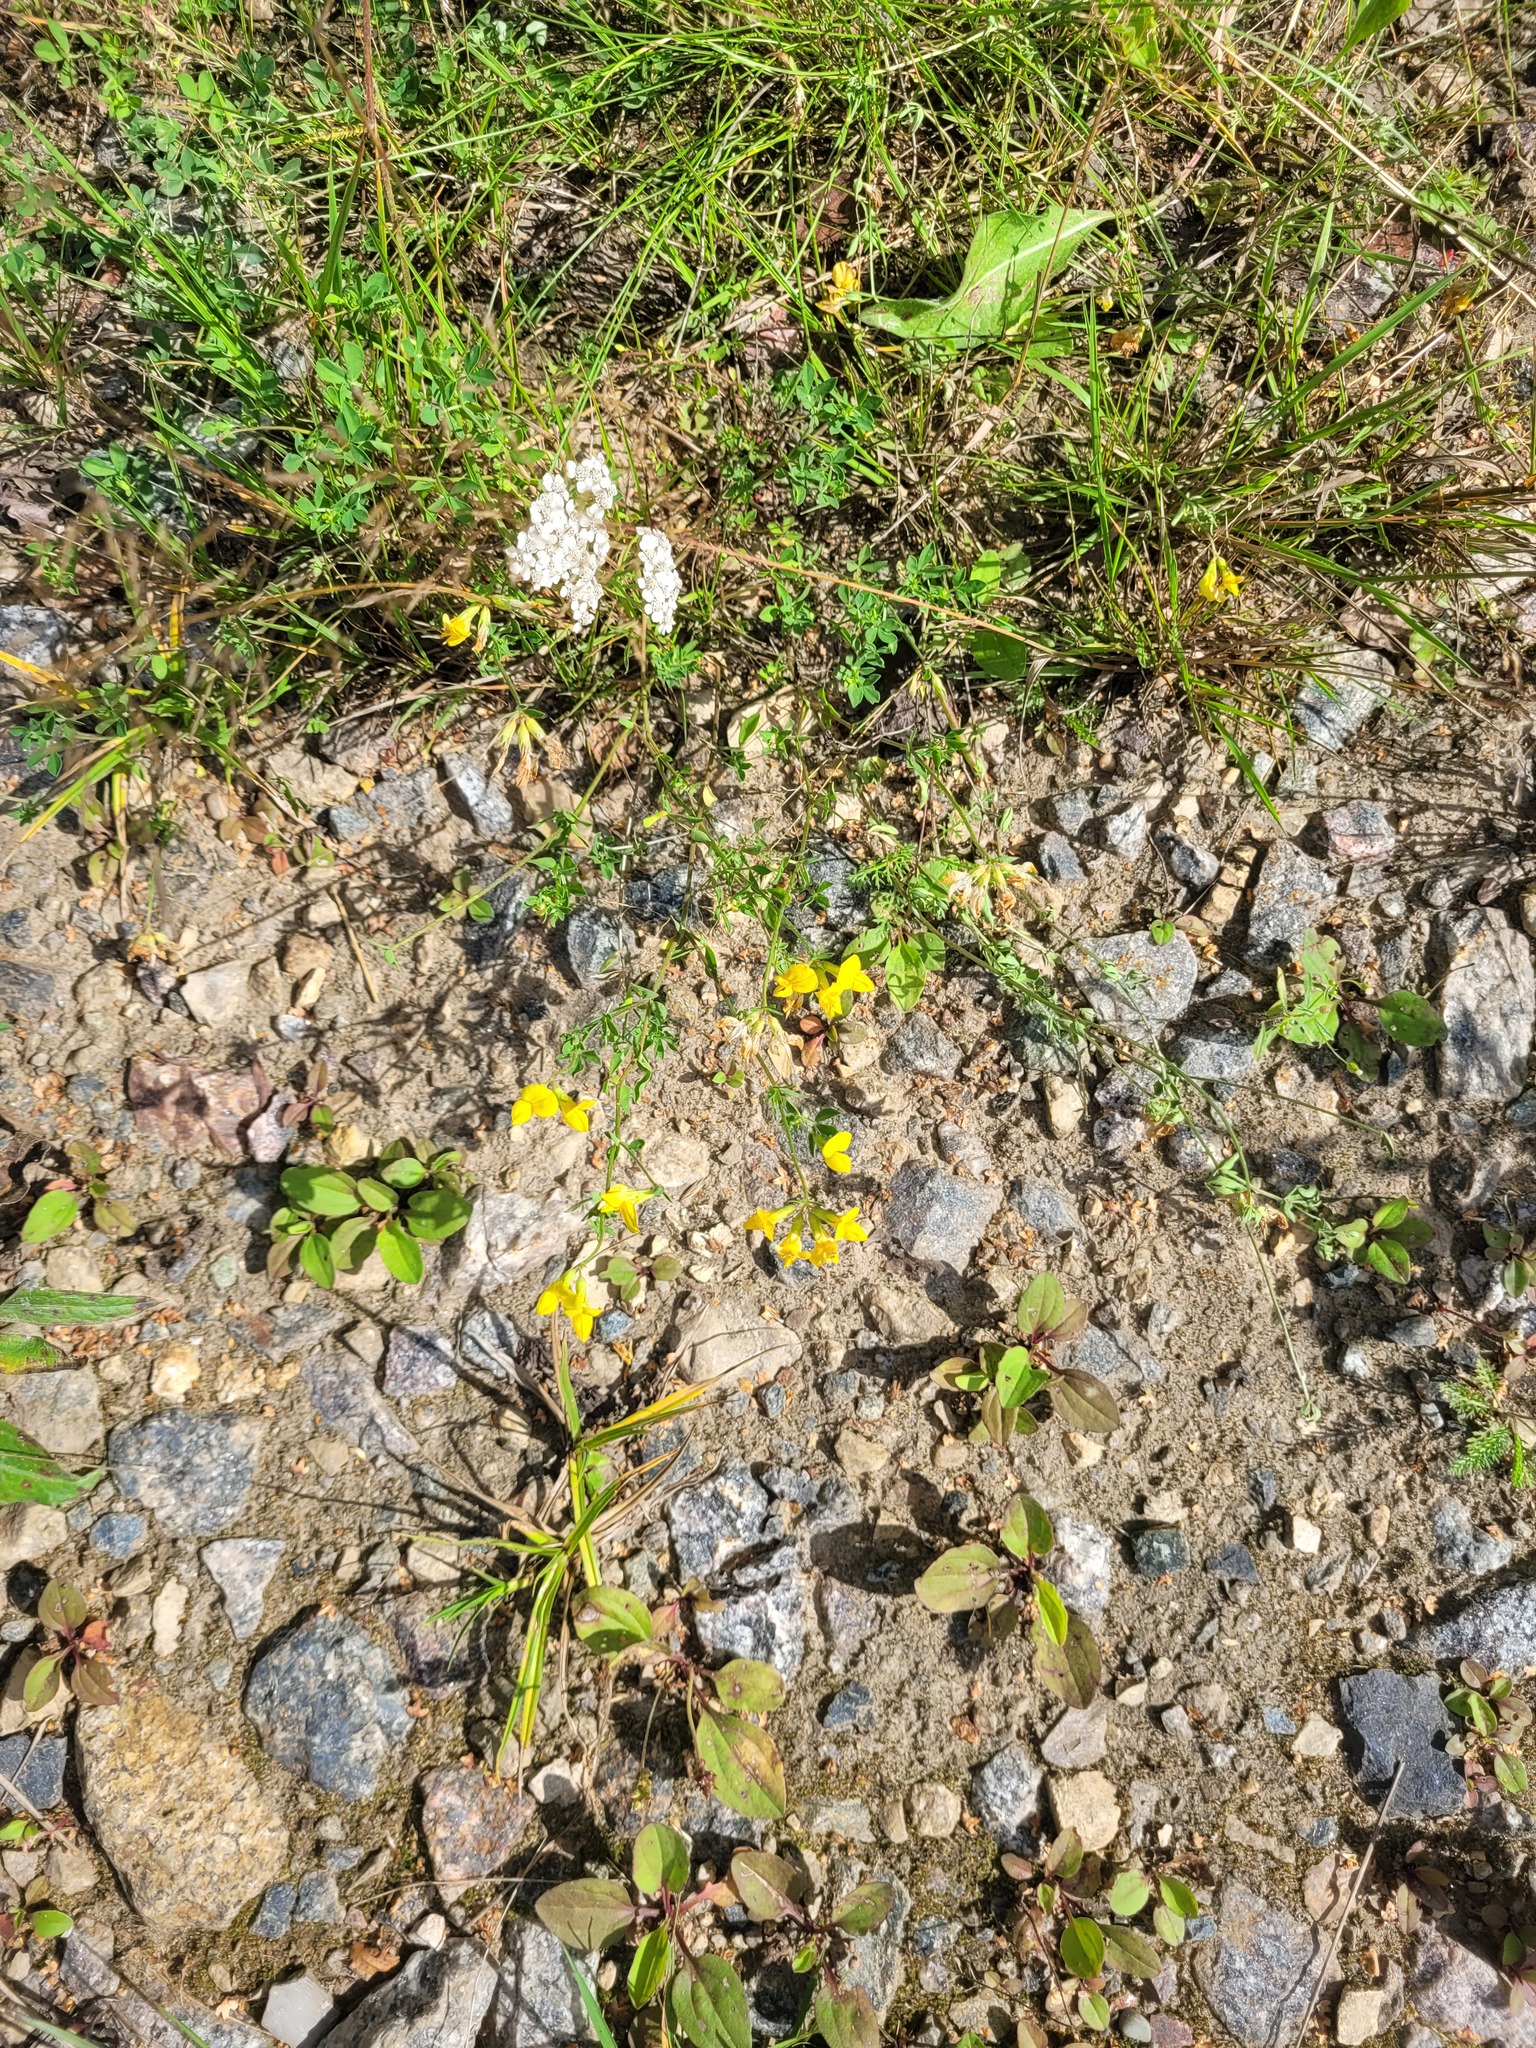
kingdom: Plantae
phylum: Tracheophyta
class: Magnoliopsida
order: Fabales
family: Fabaceae
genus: Lotus
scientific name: Lotus corniculatus
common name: Common bird's-foot-trefoil
